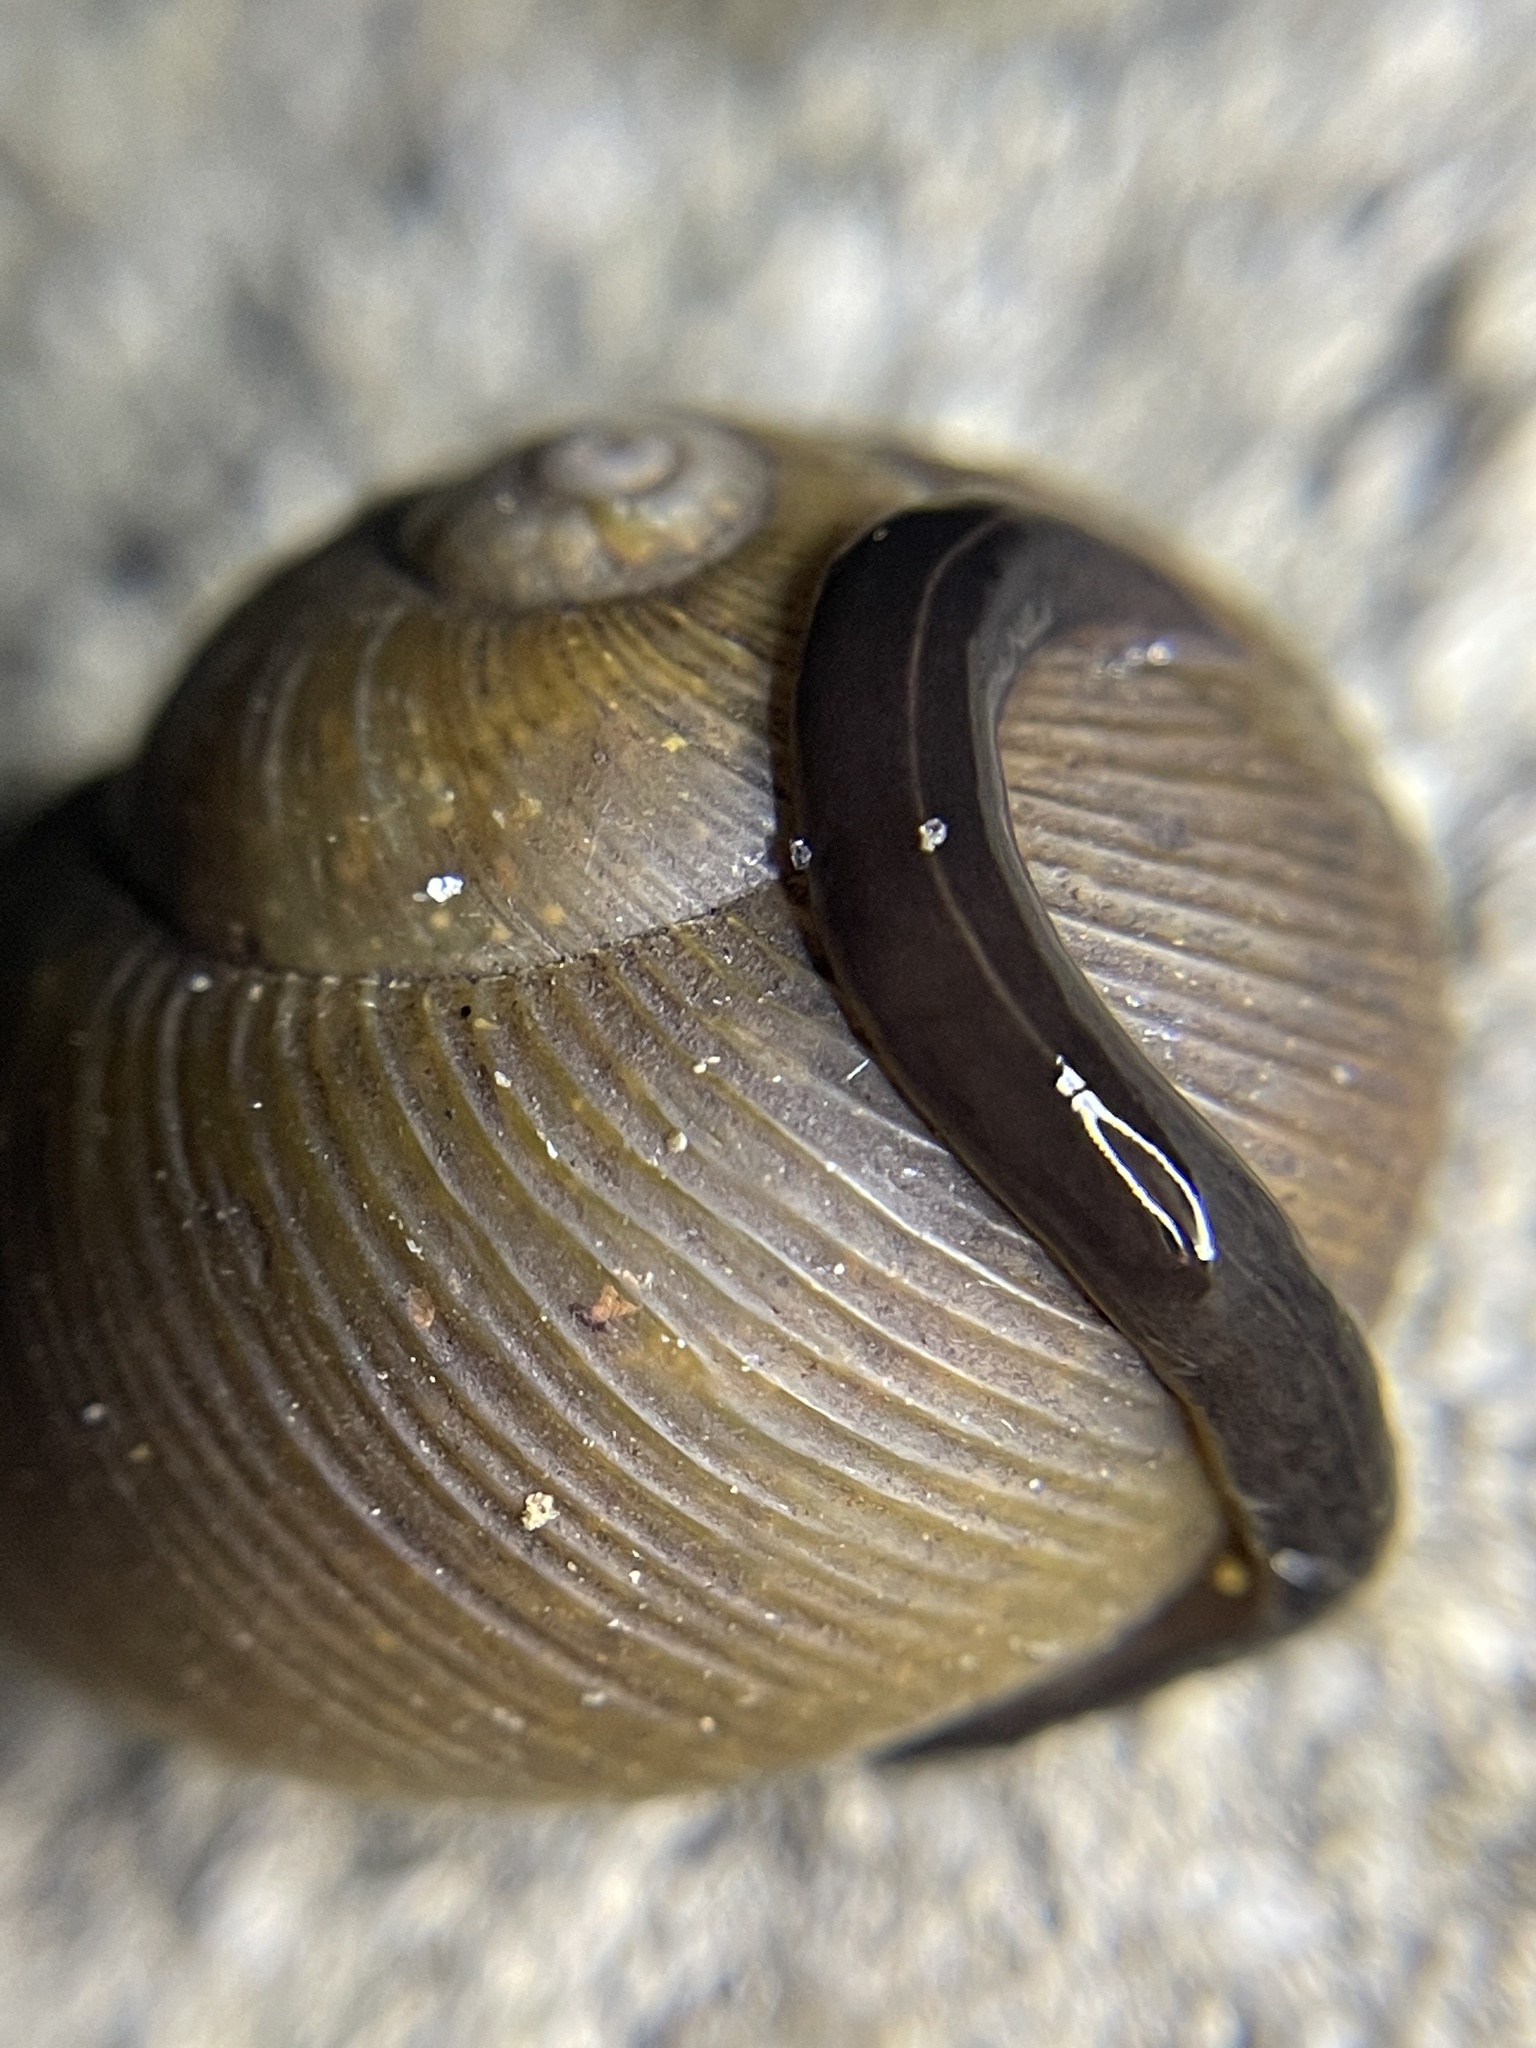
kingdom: Animalia
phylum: Platyhelminthes
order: Tricladida
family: Geoplanidae
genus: Platydemus
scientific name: Platydemus manokwari
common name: New guinea flatworm
